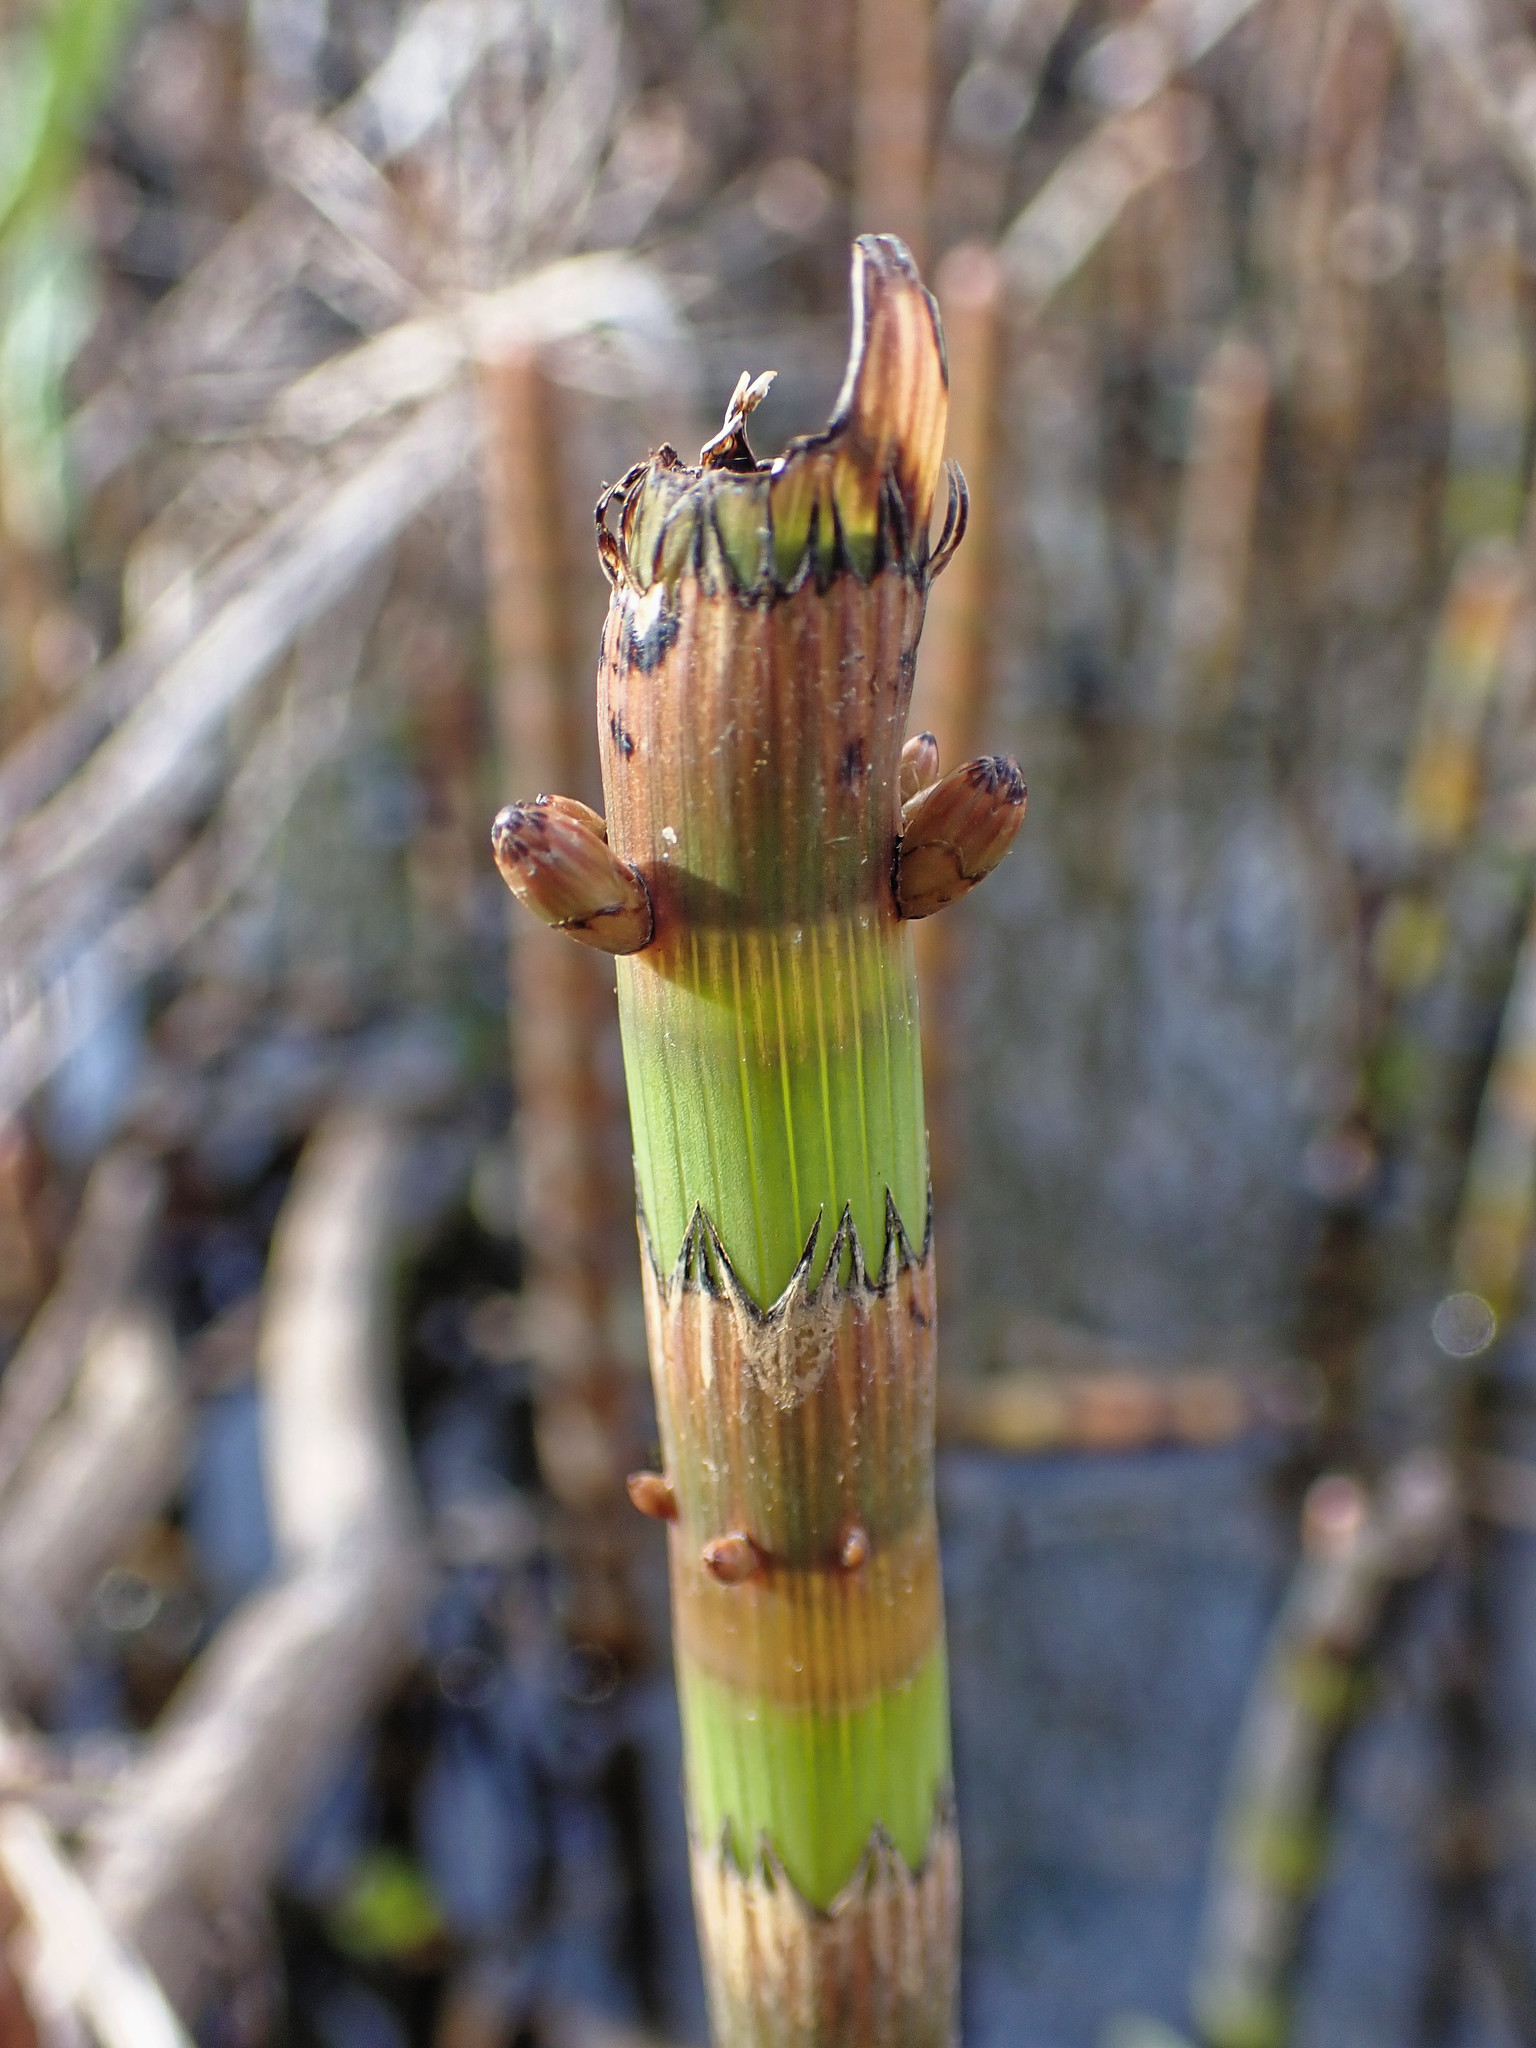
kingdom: Plantae
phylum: Tracheophyta
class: Polypodiopsida
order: Equisetales
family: Equisetaceae
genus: Equisetum
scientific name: Equisetum fluviatile
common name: Water horsetail
